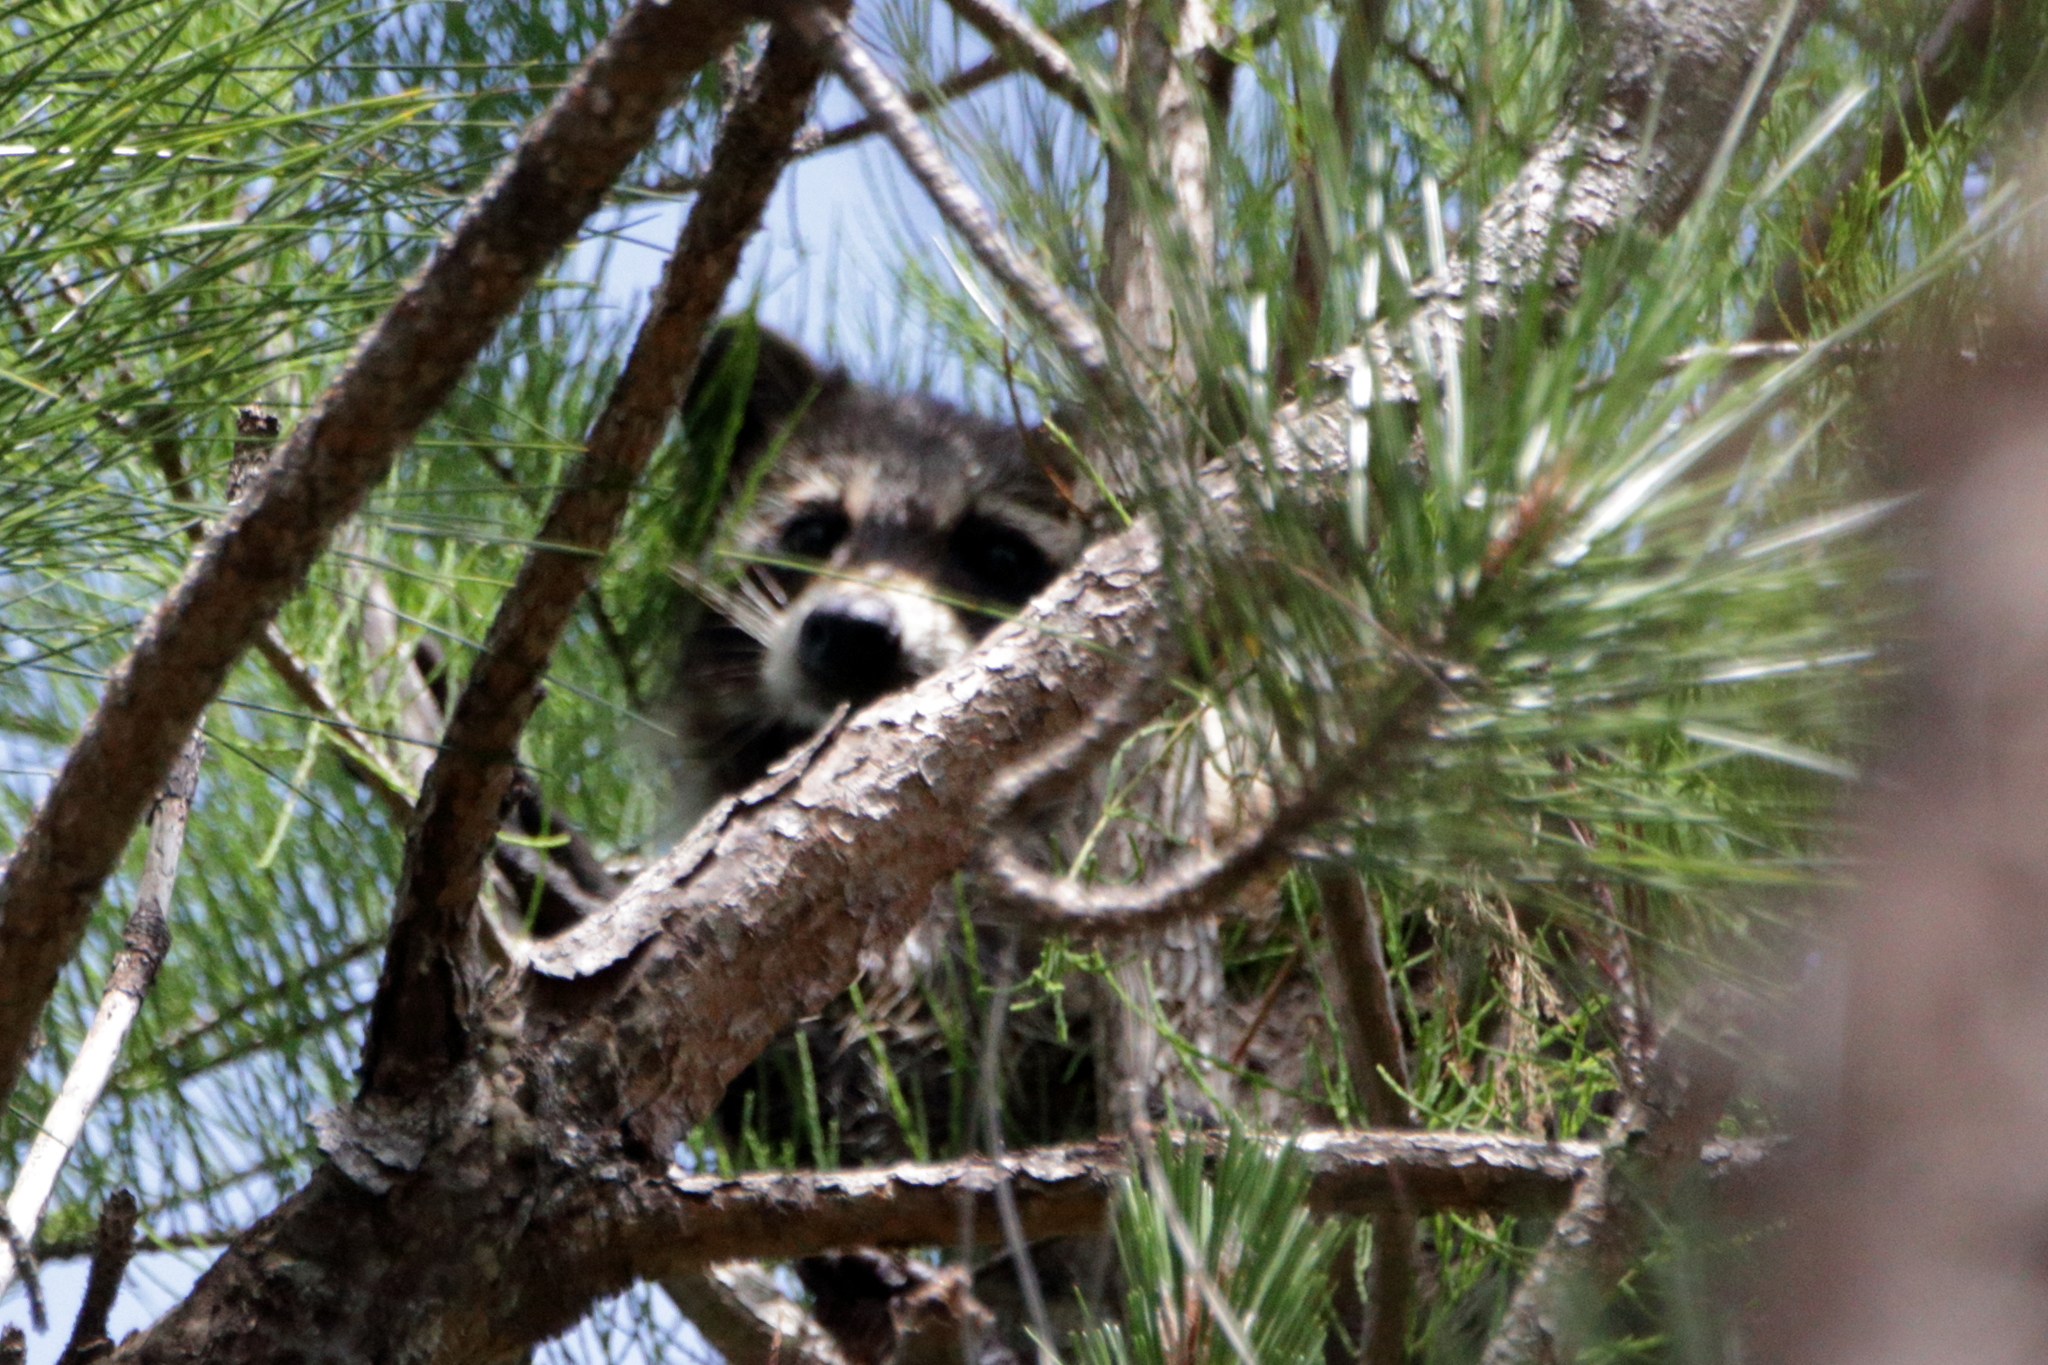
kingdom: Animalia
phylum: Chordata
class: Mammalia
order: Carnivora
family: Procyonidae
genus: Procyon
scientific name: Procyon lotor
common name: Raccoon
